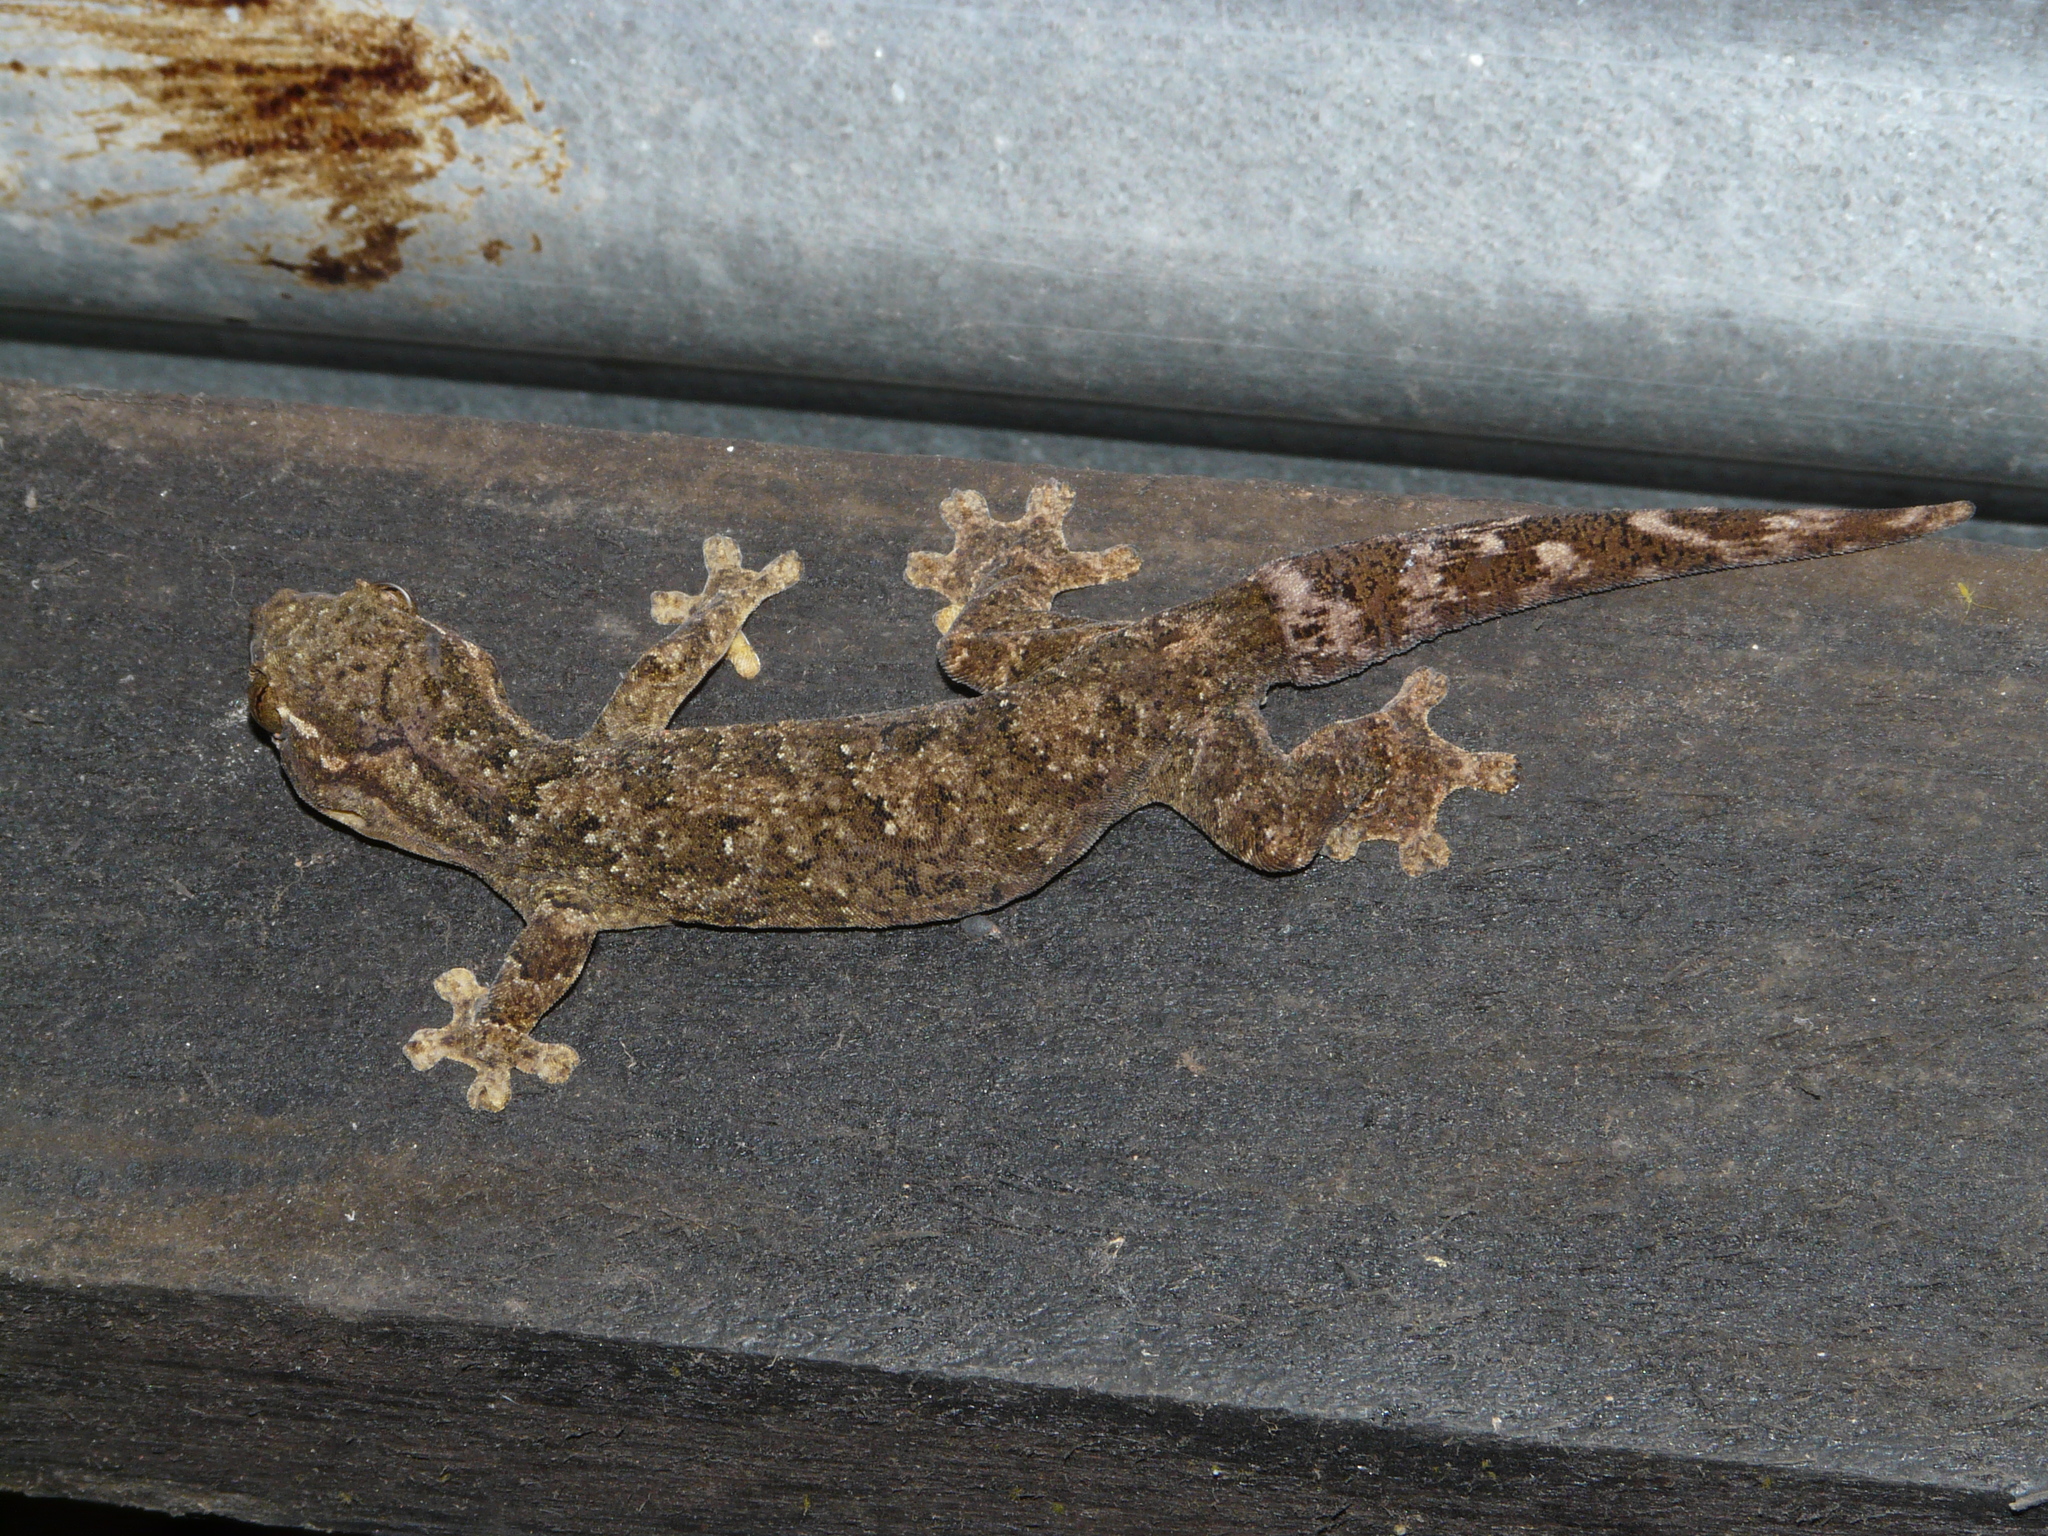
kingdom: Animalia
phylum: Chordata
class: Squamata
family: Phyllodactylidae
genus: Thecadactylus
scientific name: Thecadactylus rapicauda
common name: Turnip-tailed gecko
